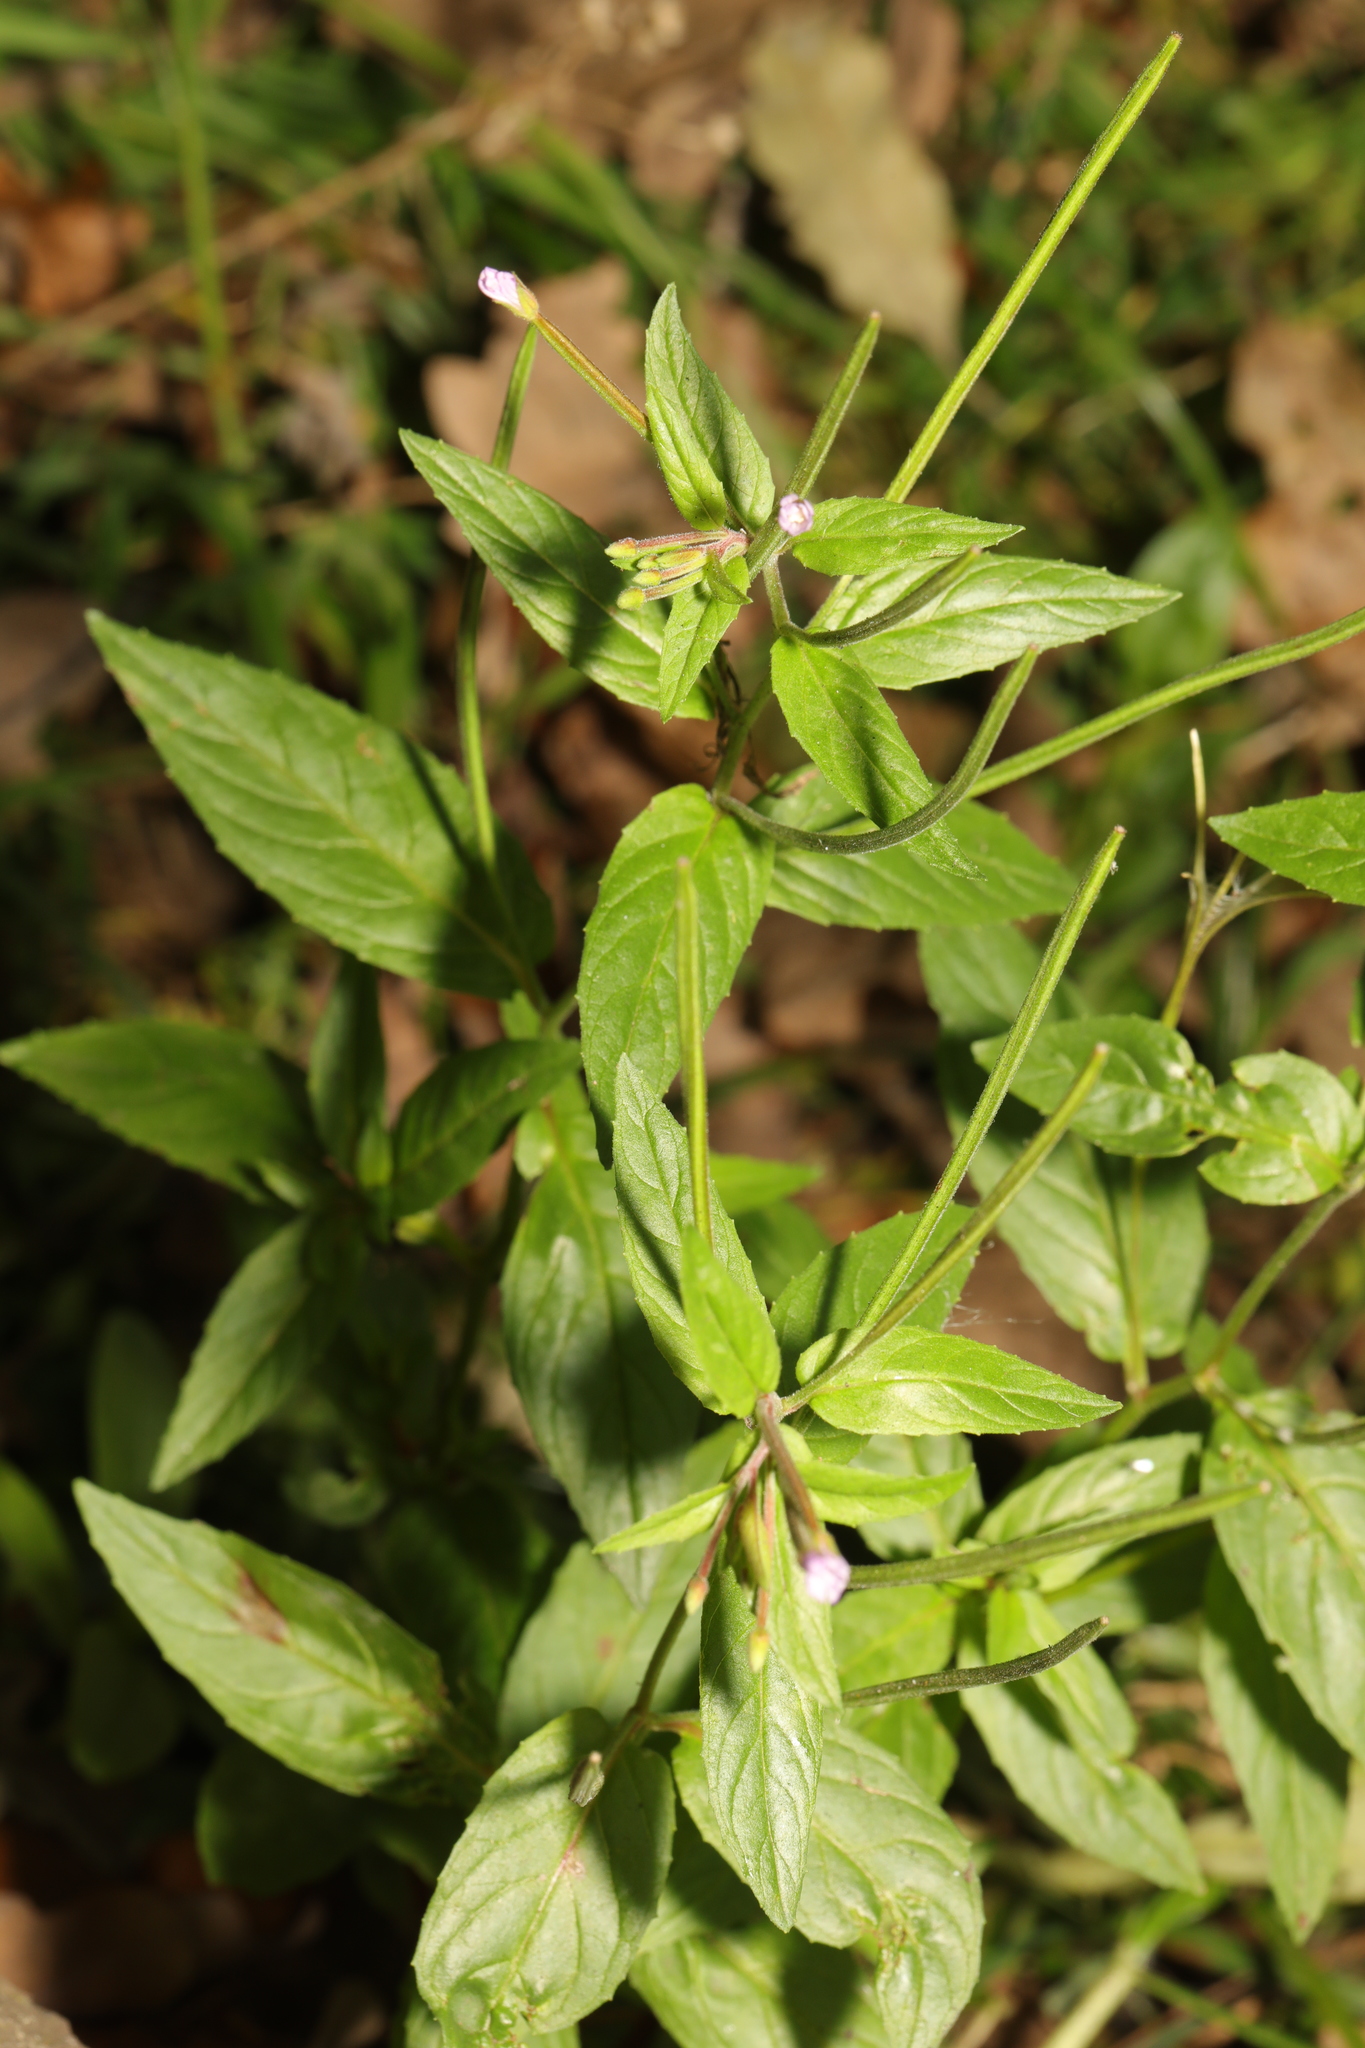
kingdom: Plantae
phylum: Tracheophyta
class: Magnoliopsida
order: Myrtales
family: Onagraceae
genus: Epilobium
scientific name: Epilobium montanum
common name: Broad-leaved willowherb
